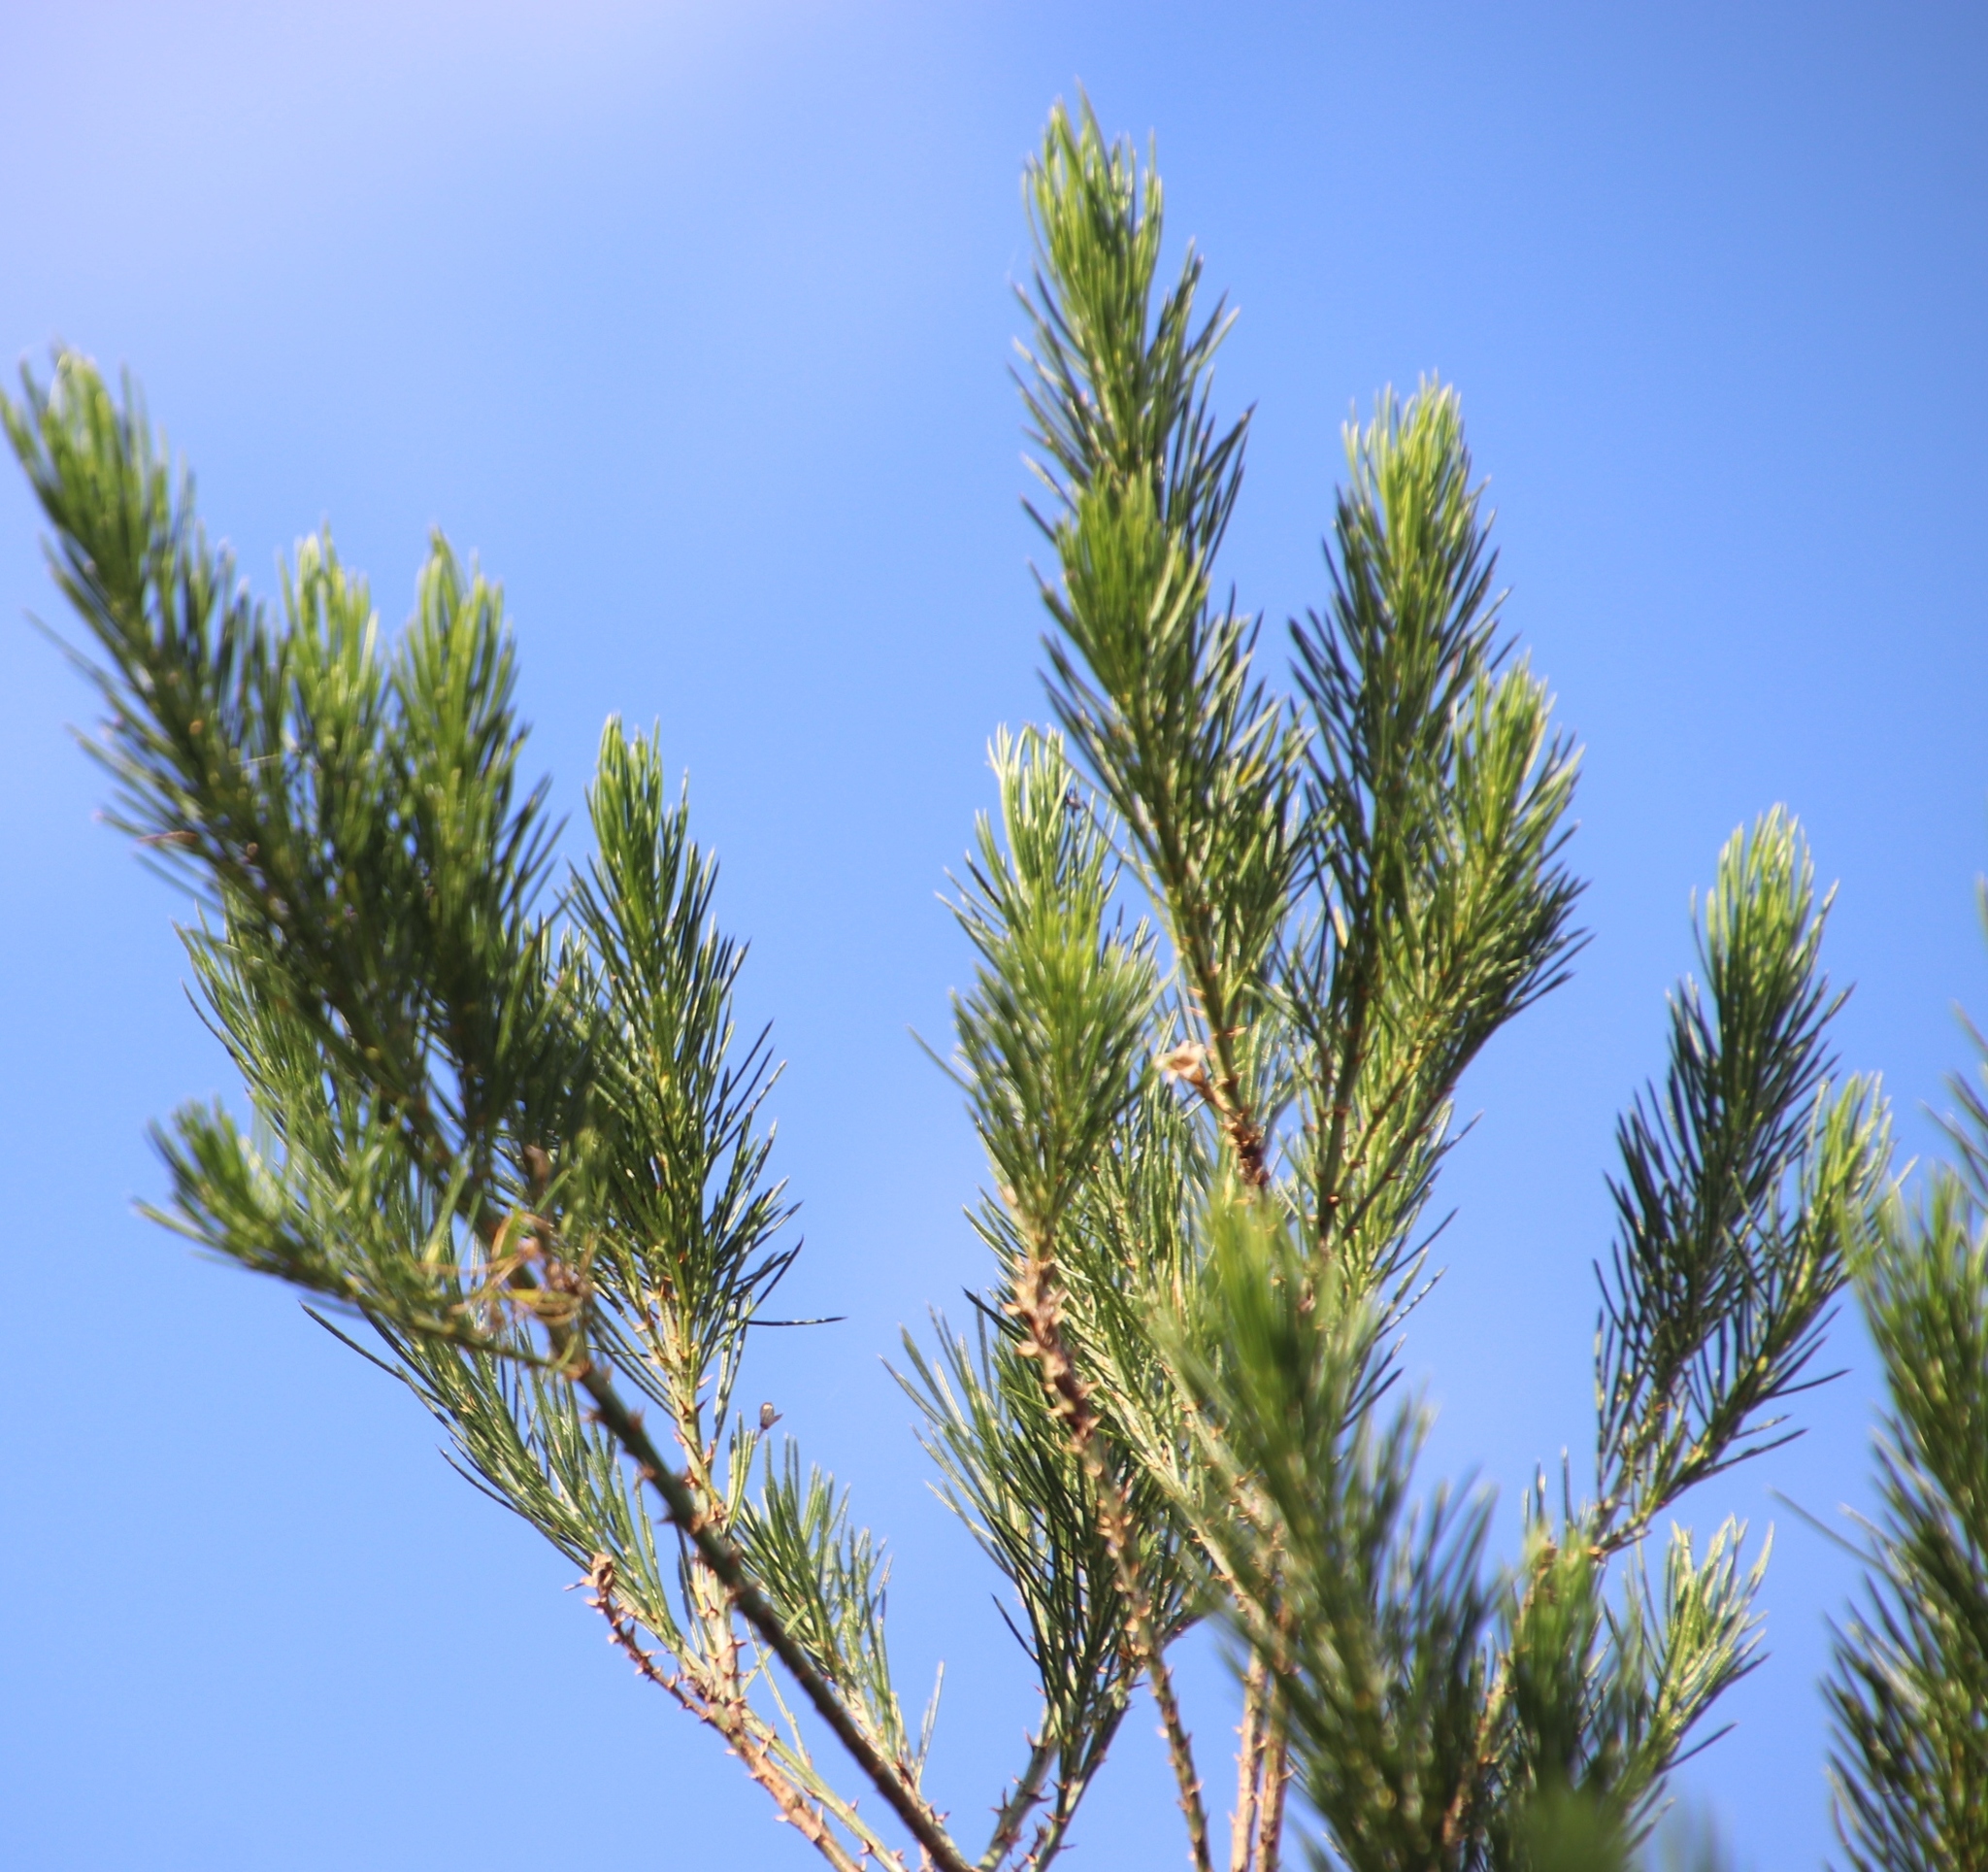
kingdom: Plantae
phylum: Tracheophyta
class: Magnoliopsida
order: Fabales
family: Fabaceae
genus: Psoralea
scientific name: Psoralea pinnata
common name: African scurfpea
